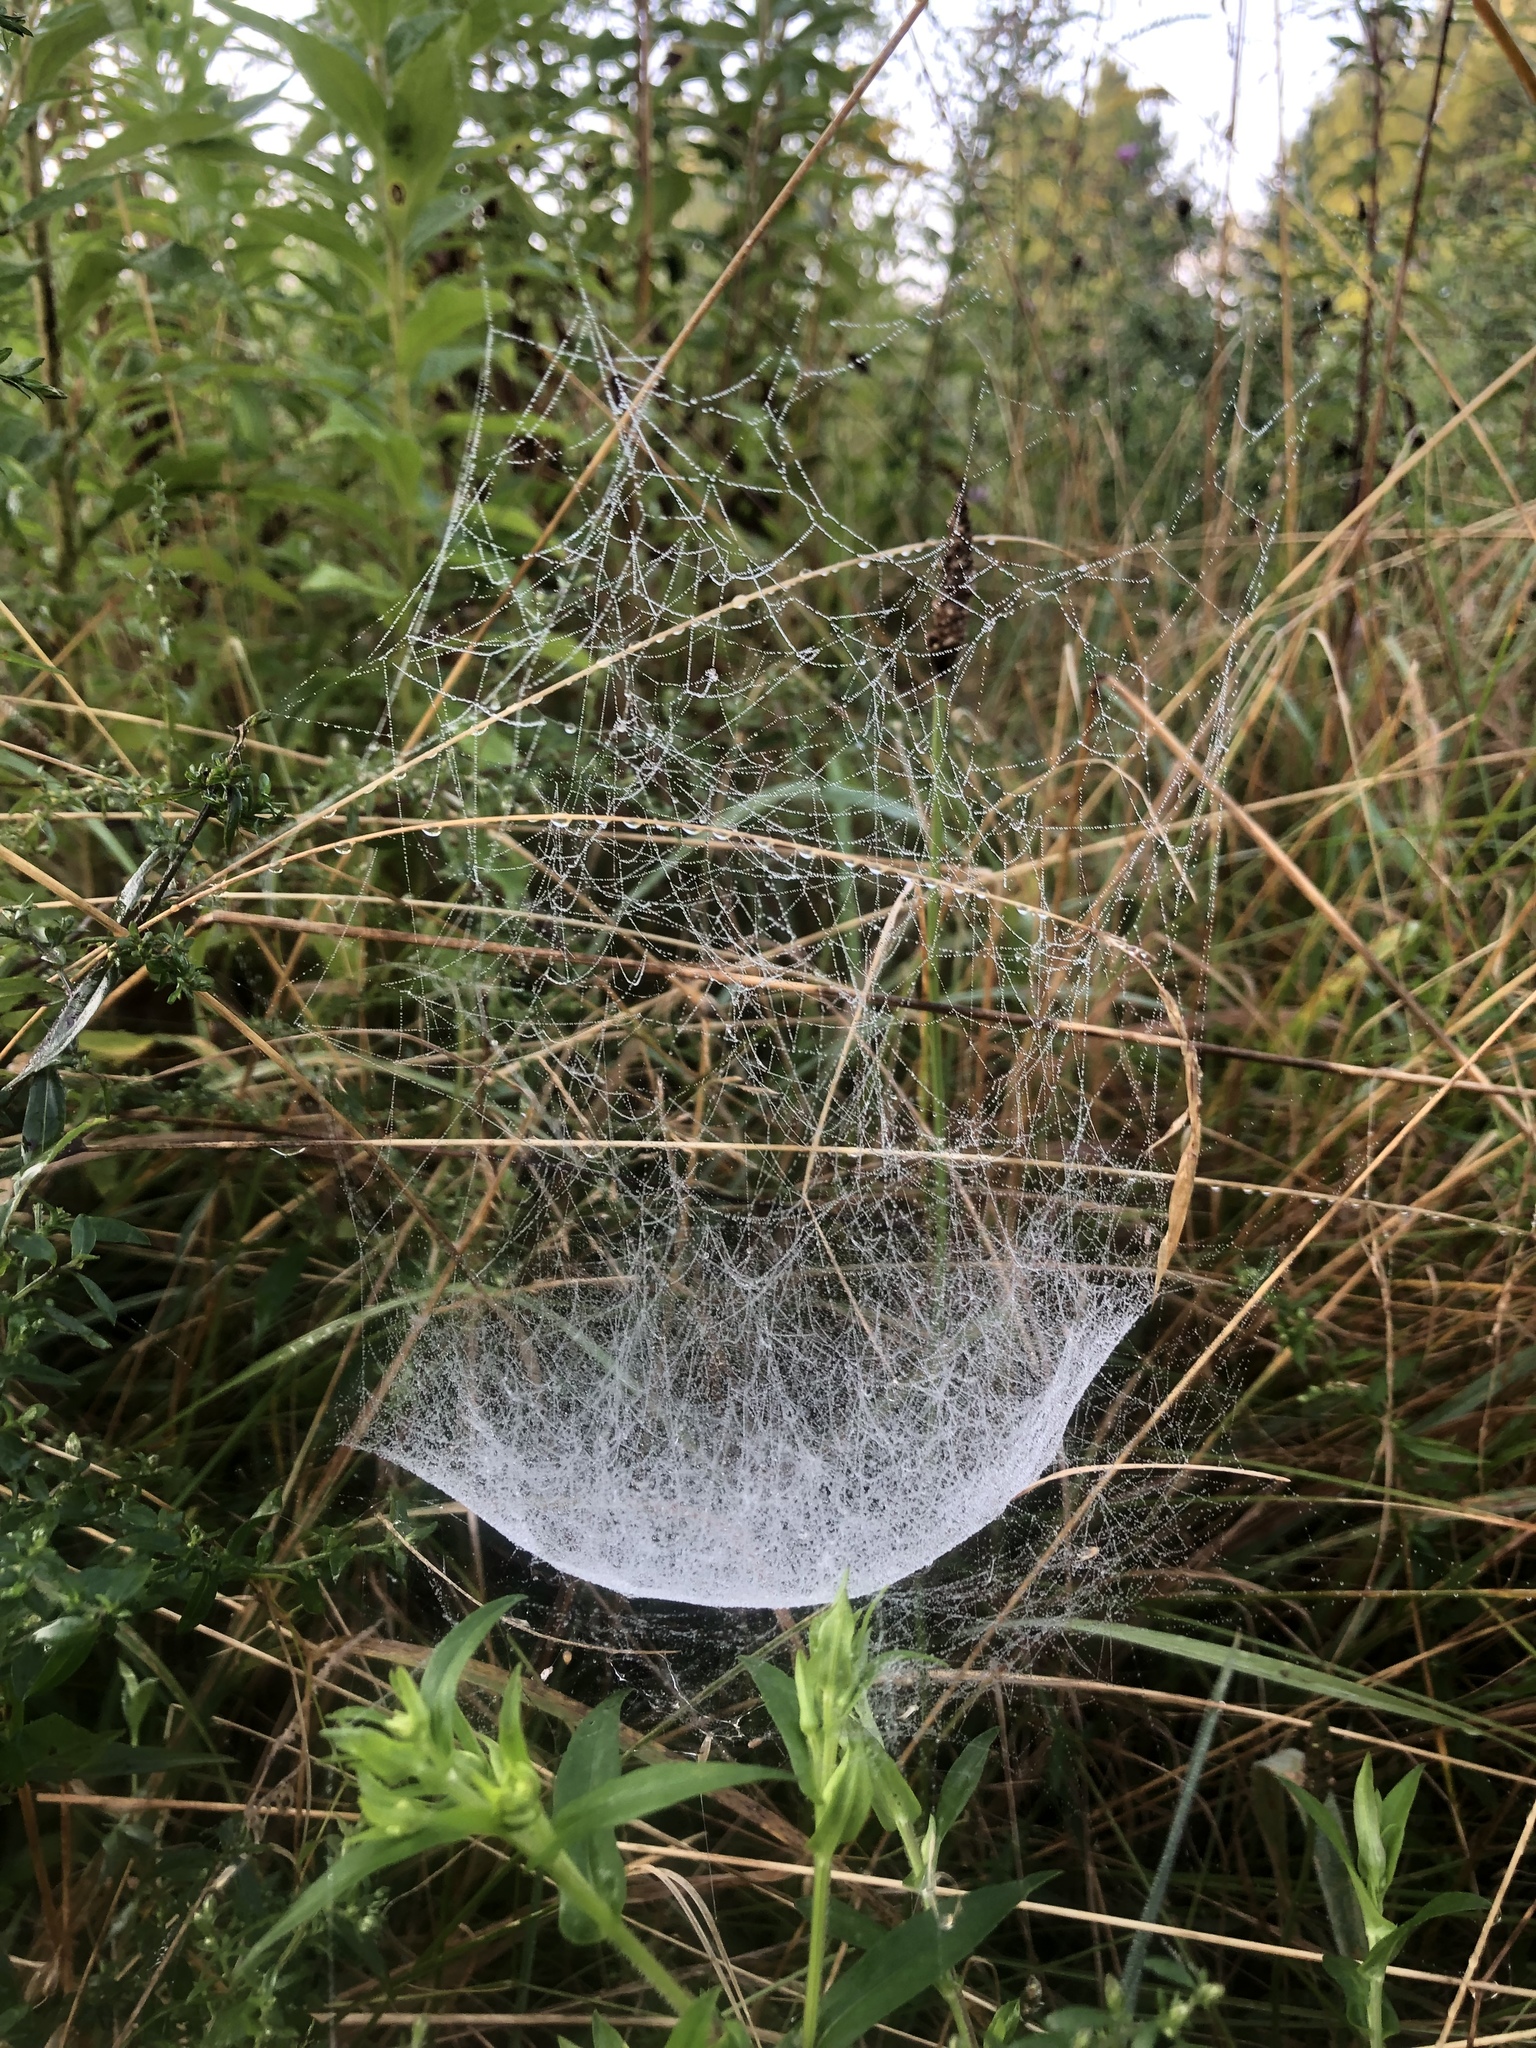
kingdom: Animalia
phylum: Arthropoda
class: Arachnida
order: Araneae
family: Linyphiidae
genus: Frontinella
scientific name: Frontinella pyramitela
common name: Bowl-and-doily spider
